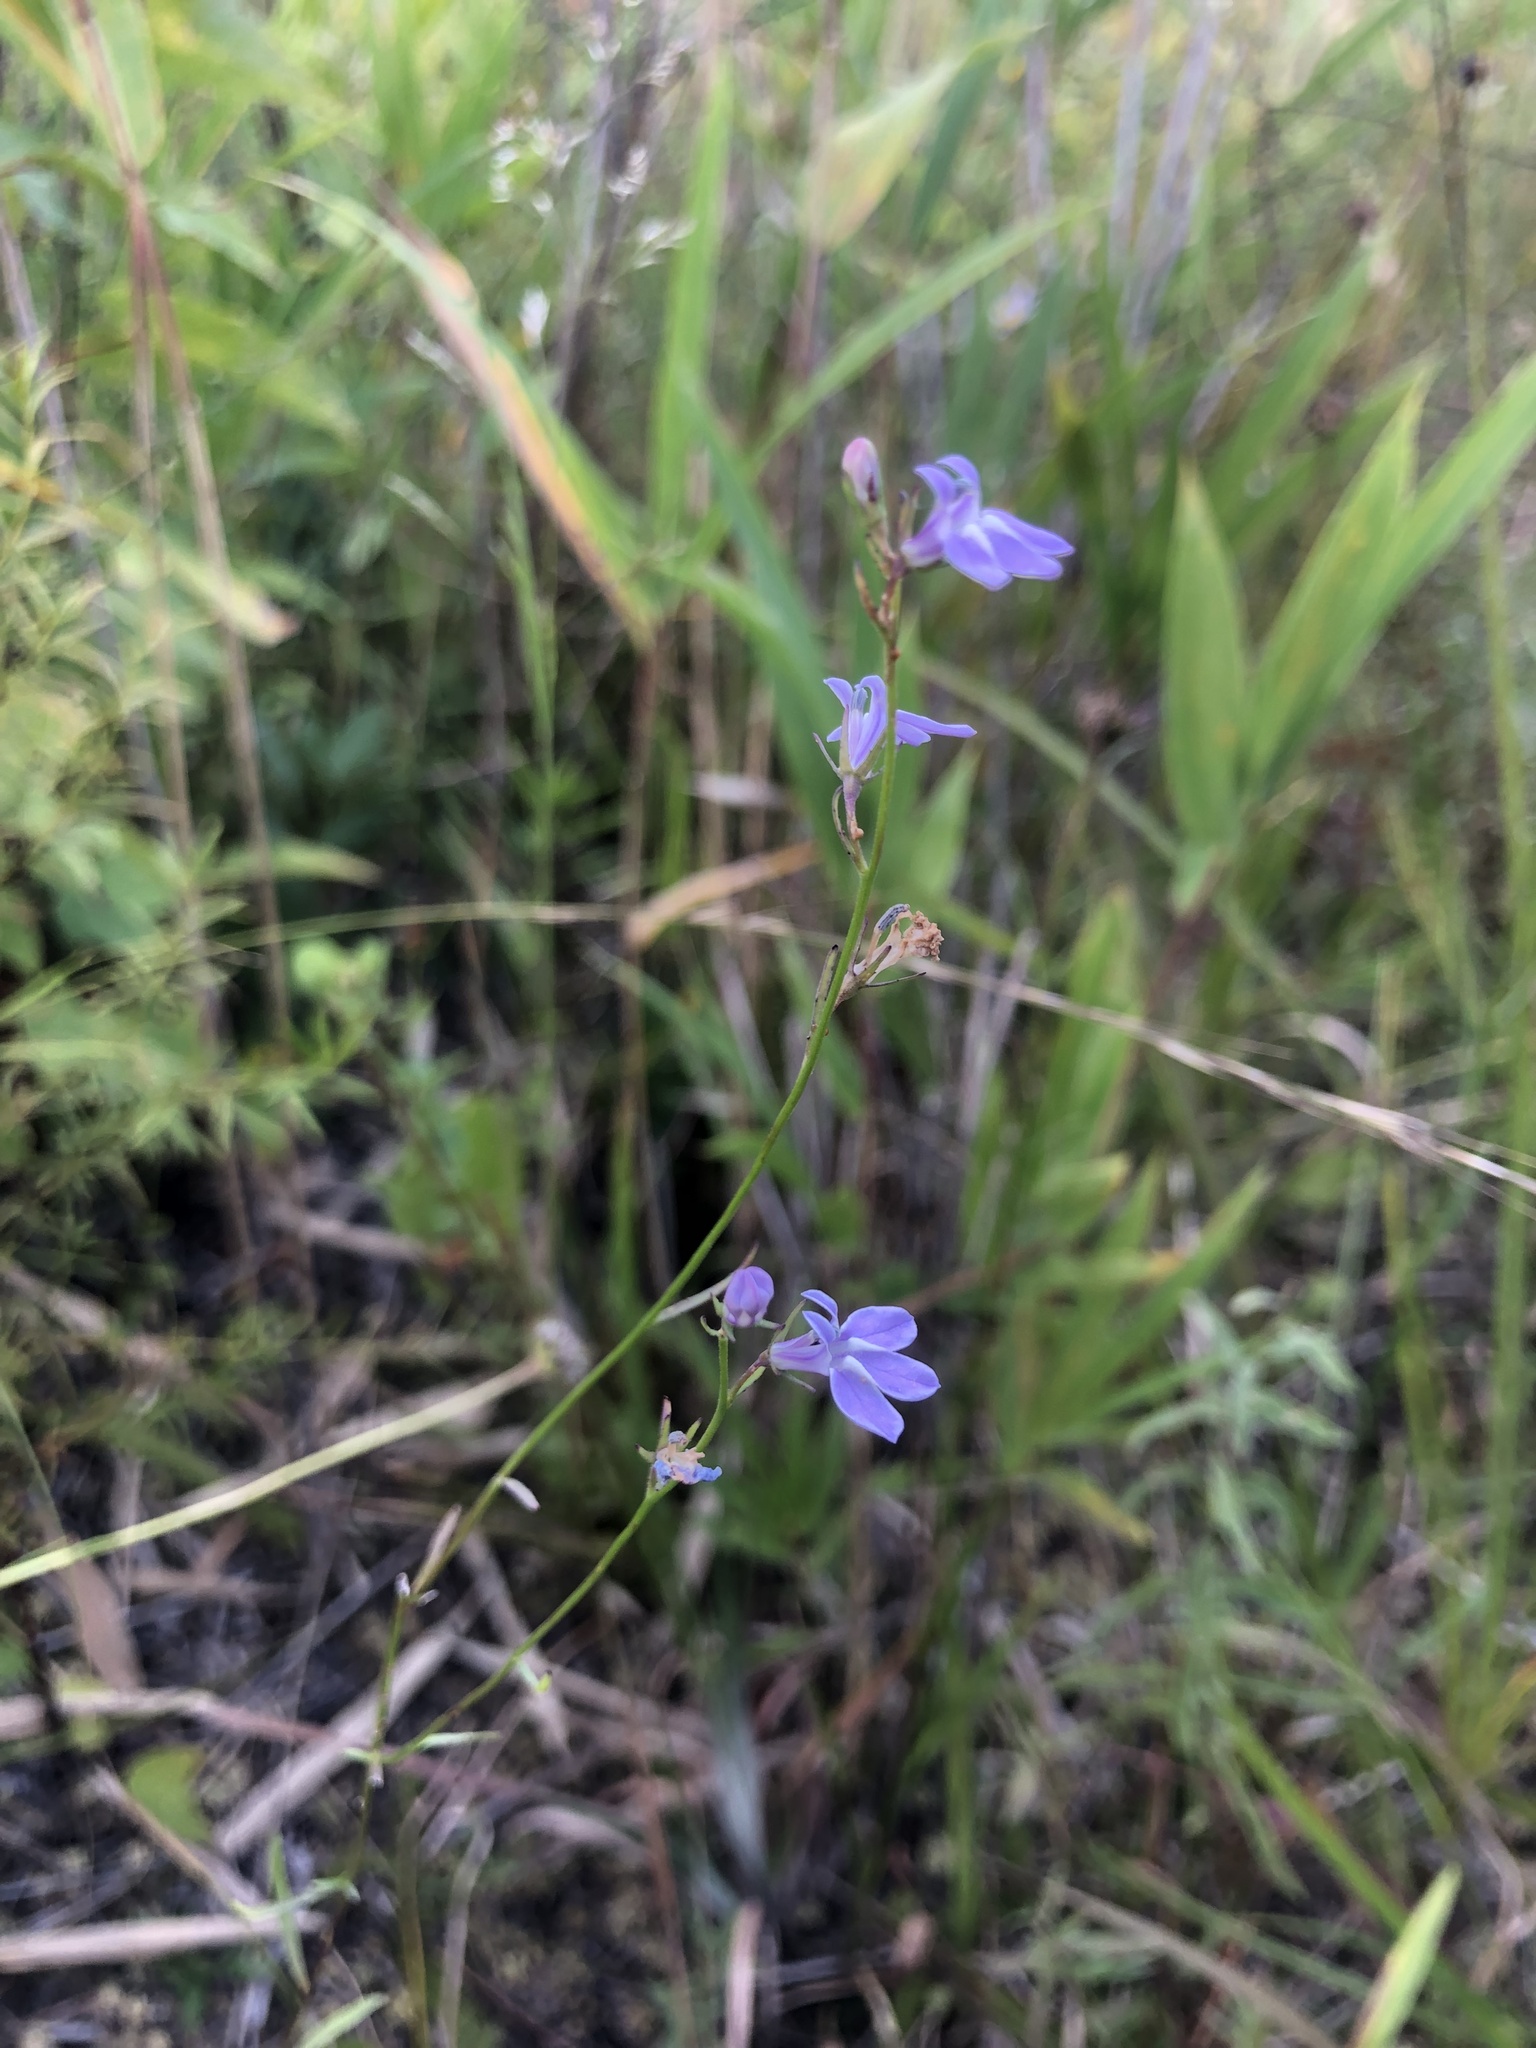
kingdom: Plantae
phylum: Tracheophyta
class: Magnoliopsida
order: Asterales
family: Campanulaceae
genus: Lobelia
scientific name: Lobelia canbyi
